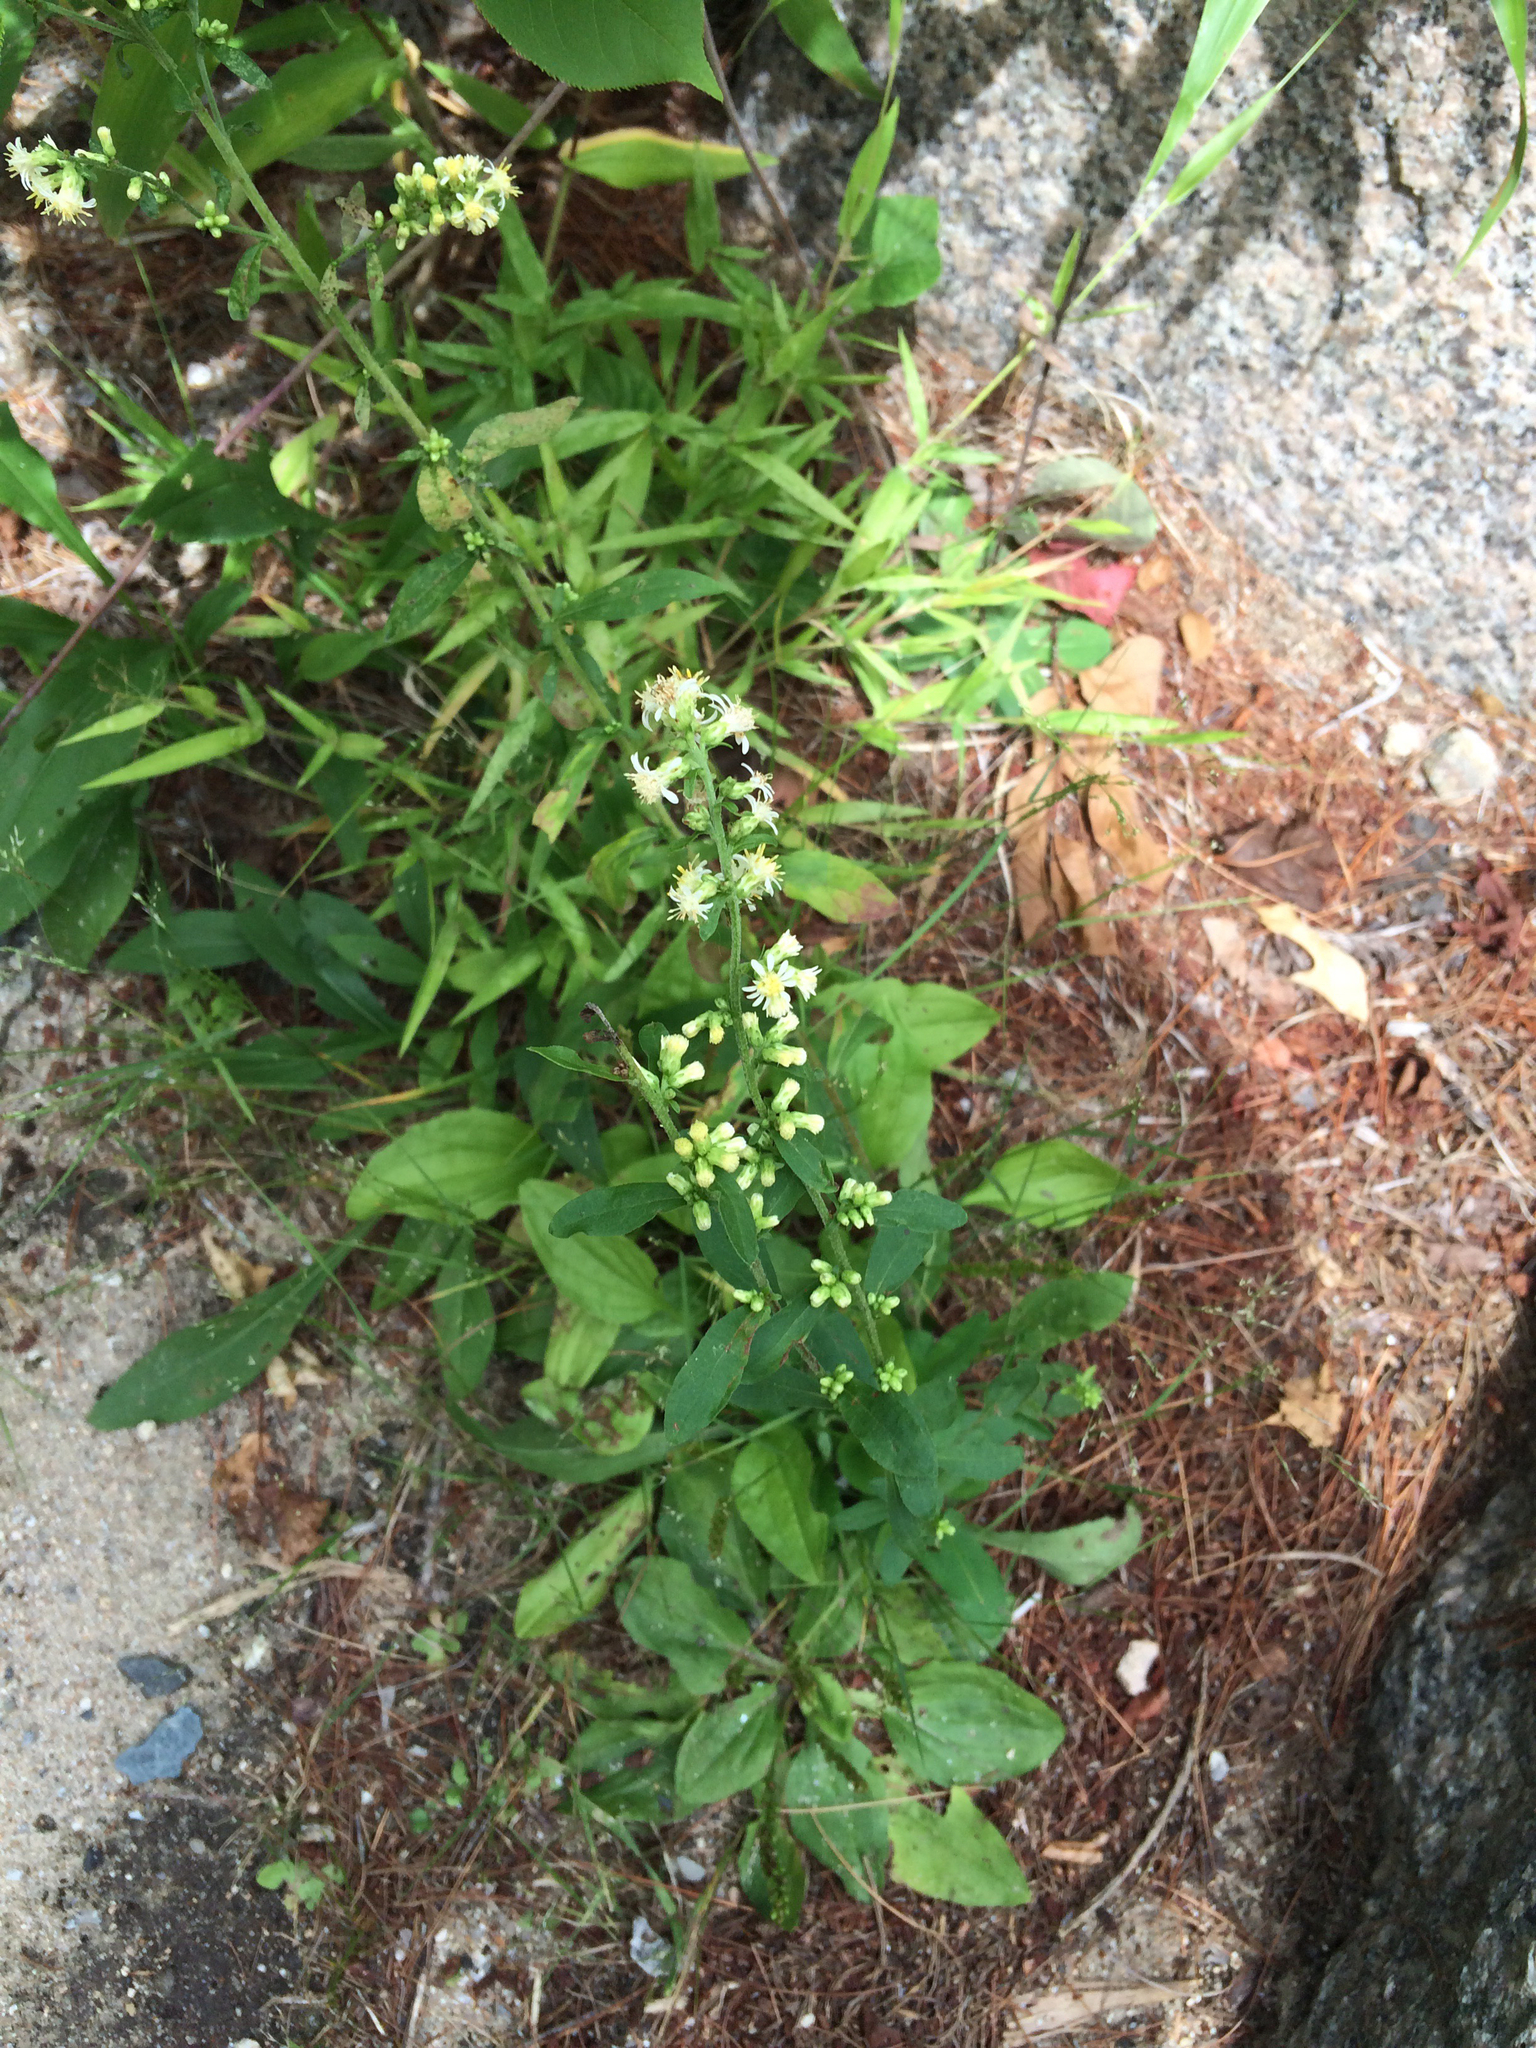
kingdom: Plantae
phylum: Tracheophyta
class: Magnoliopsida
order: Asterales
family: Asteraceae
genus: Solidago
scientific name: Solidago bicolor
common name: Silverrod
